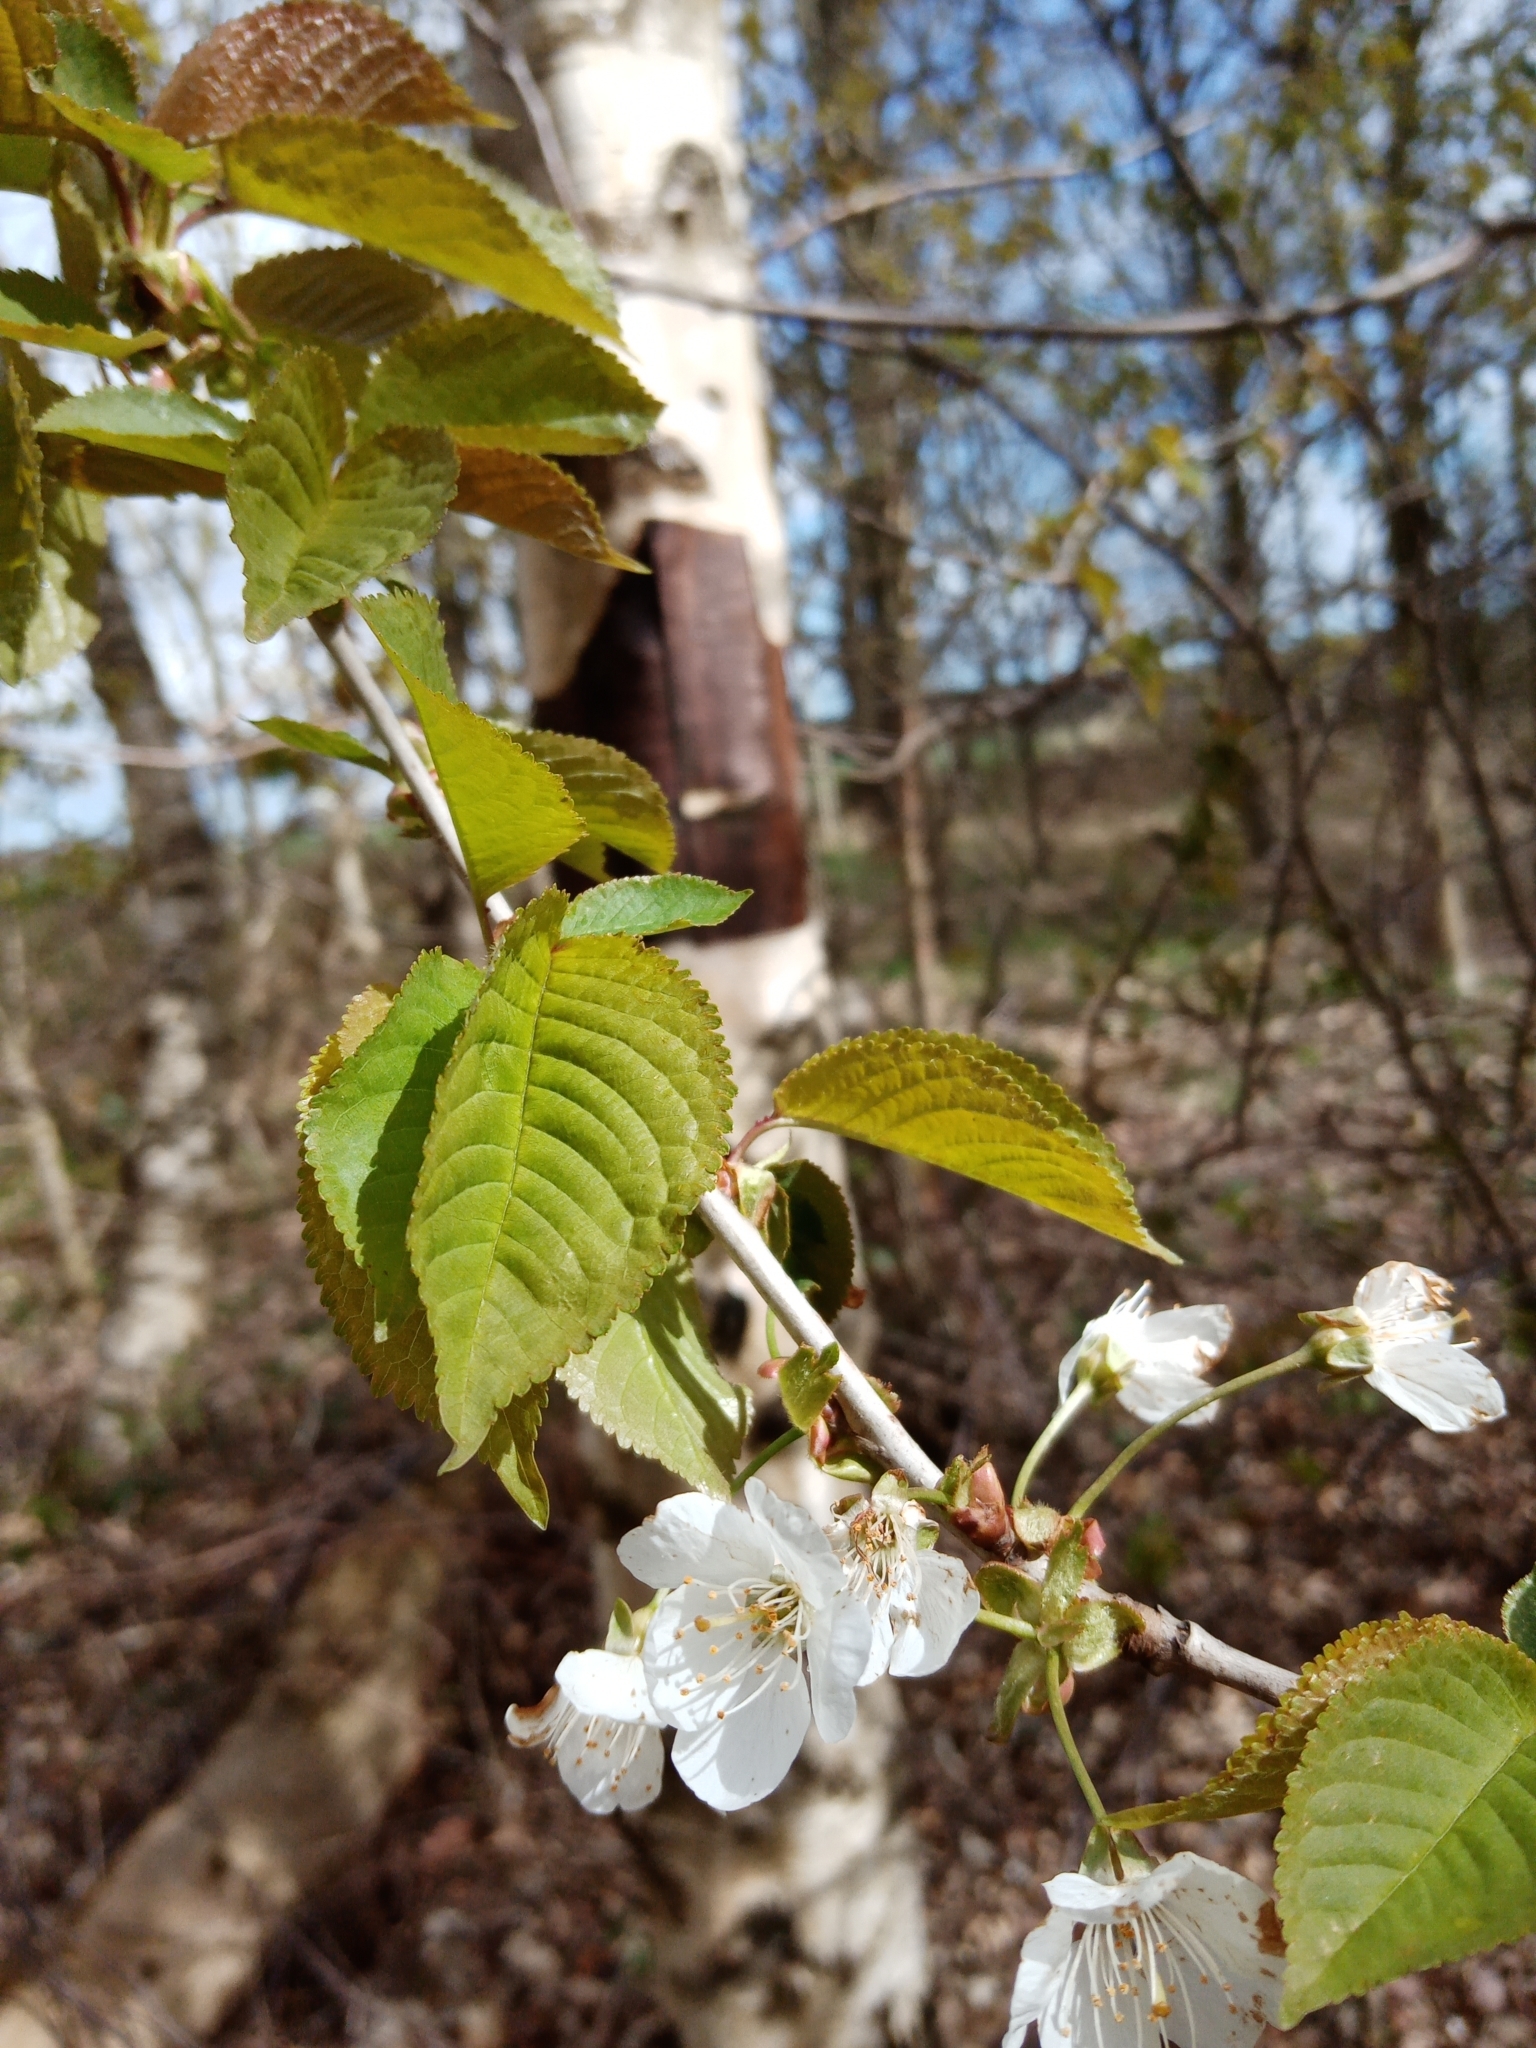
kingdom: Plantae
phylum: Tracheophyta
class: Magnoliopsida
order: Rosales
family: Rosaceae
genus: Prunus
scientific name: Prunus avium
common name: Sweet cherry
